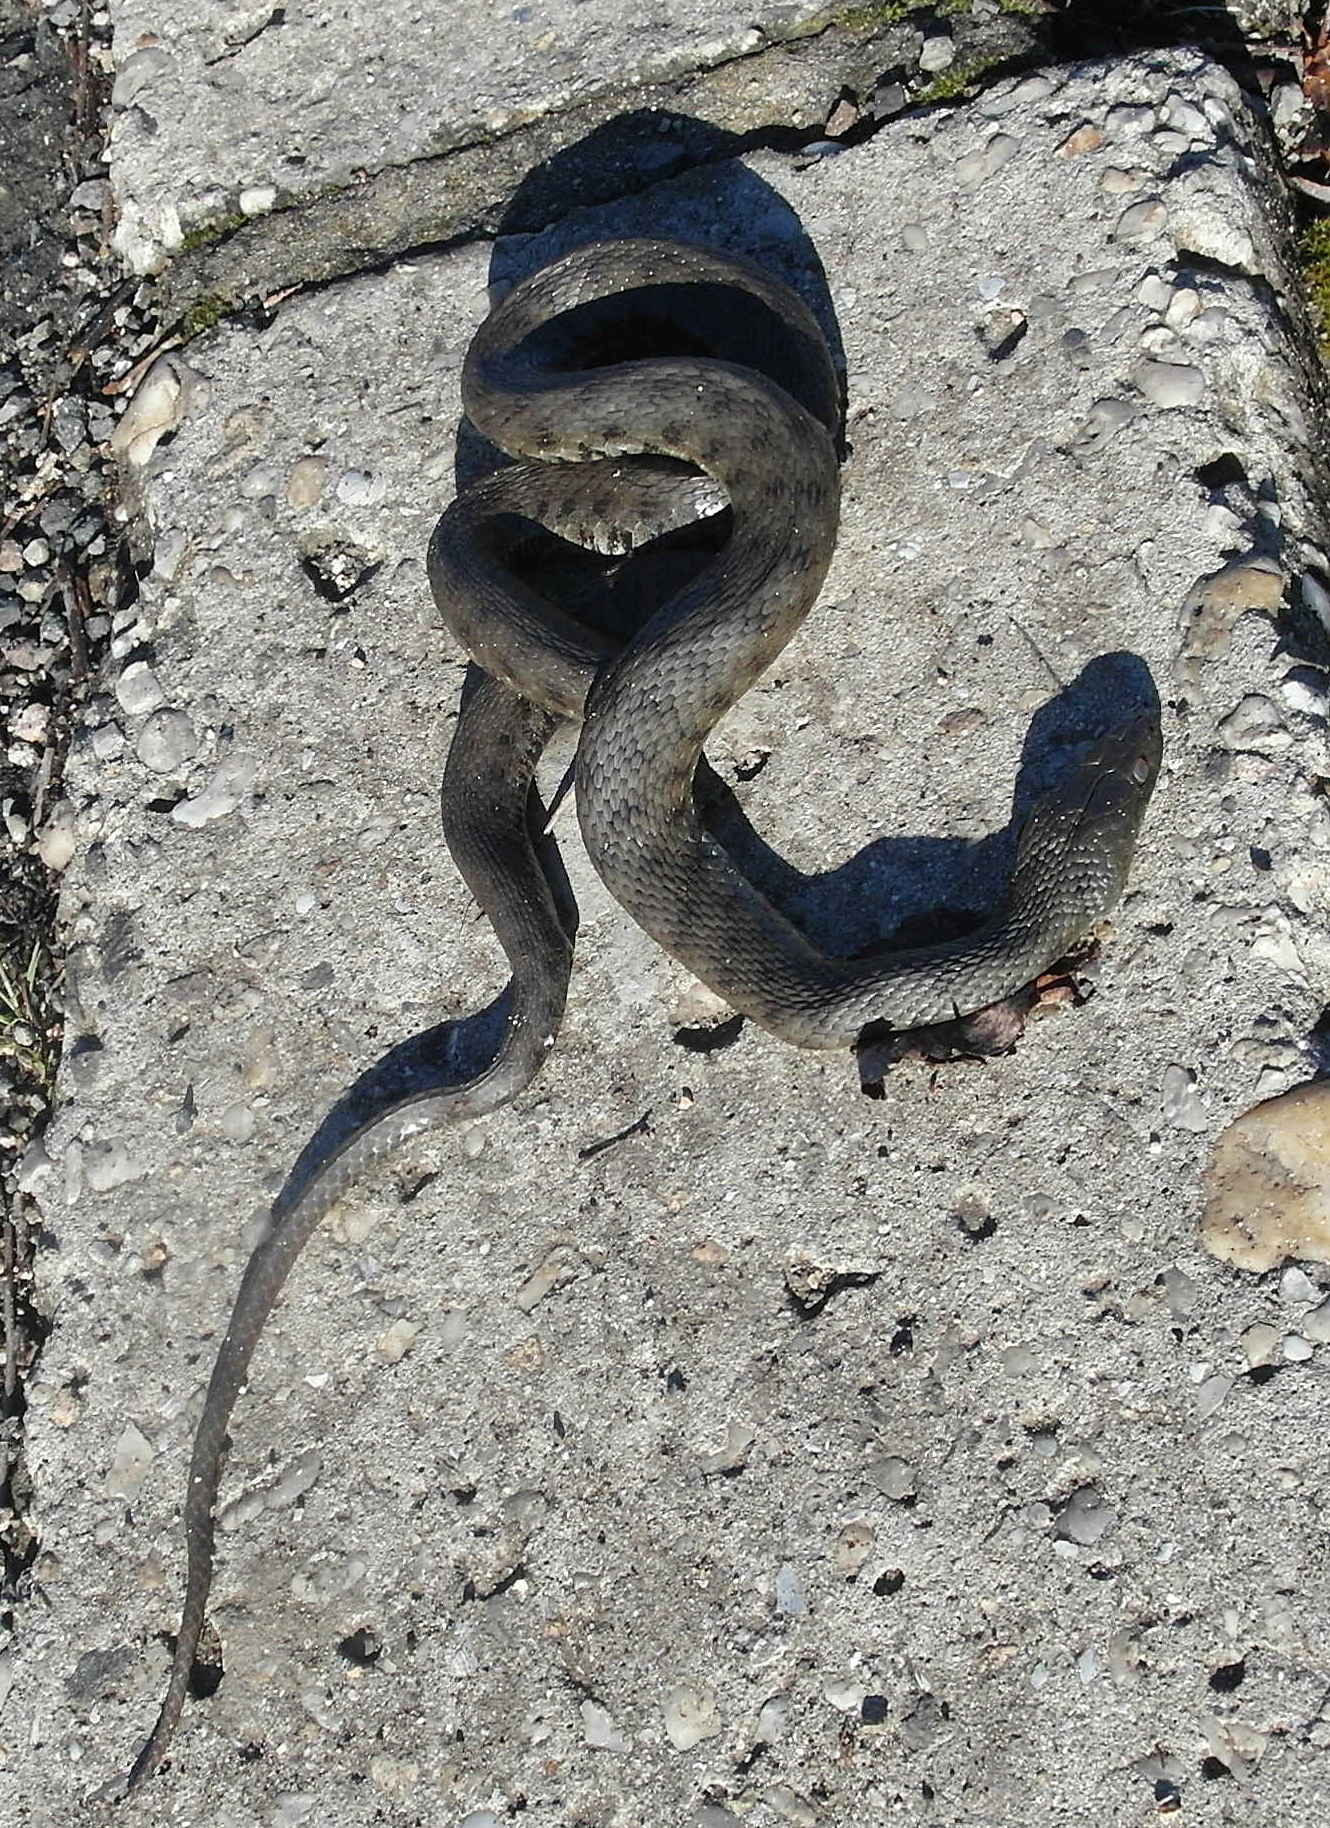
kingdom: Animalia
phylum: Chordata
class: Squamata
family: Colubridae
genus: Natrix
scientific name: Natrix tessellata
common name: Dice snake
